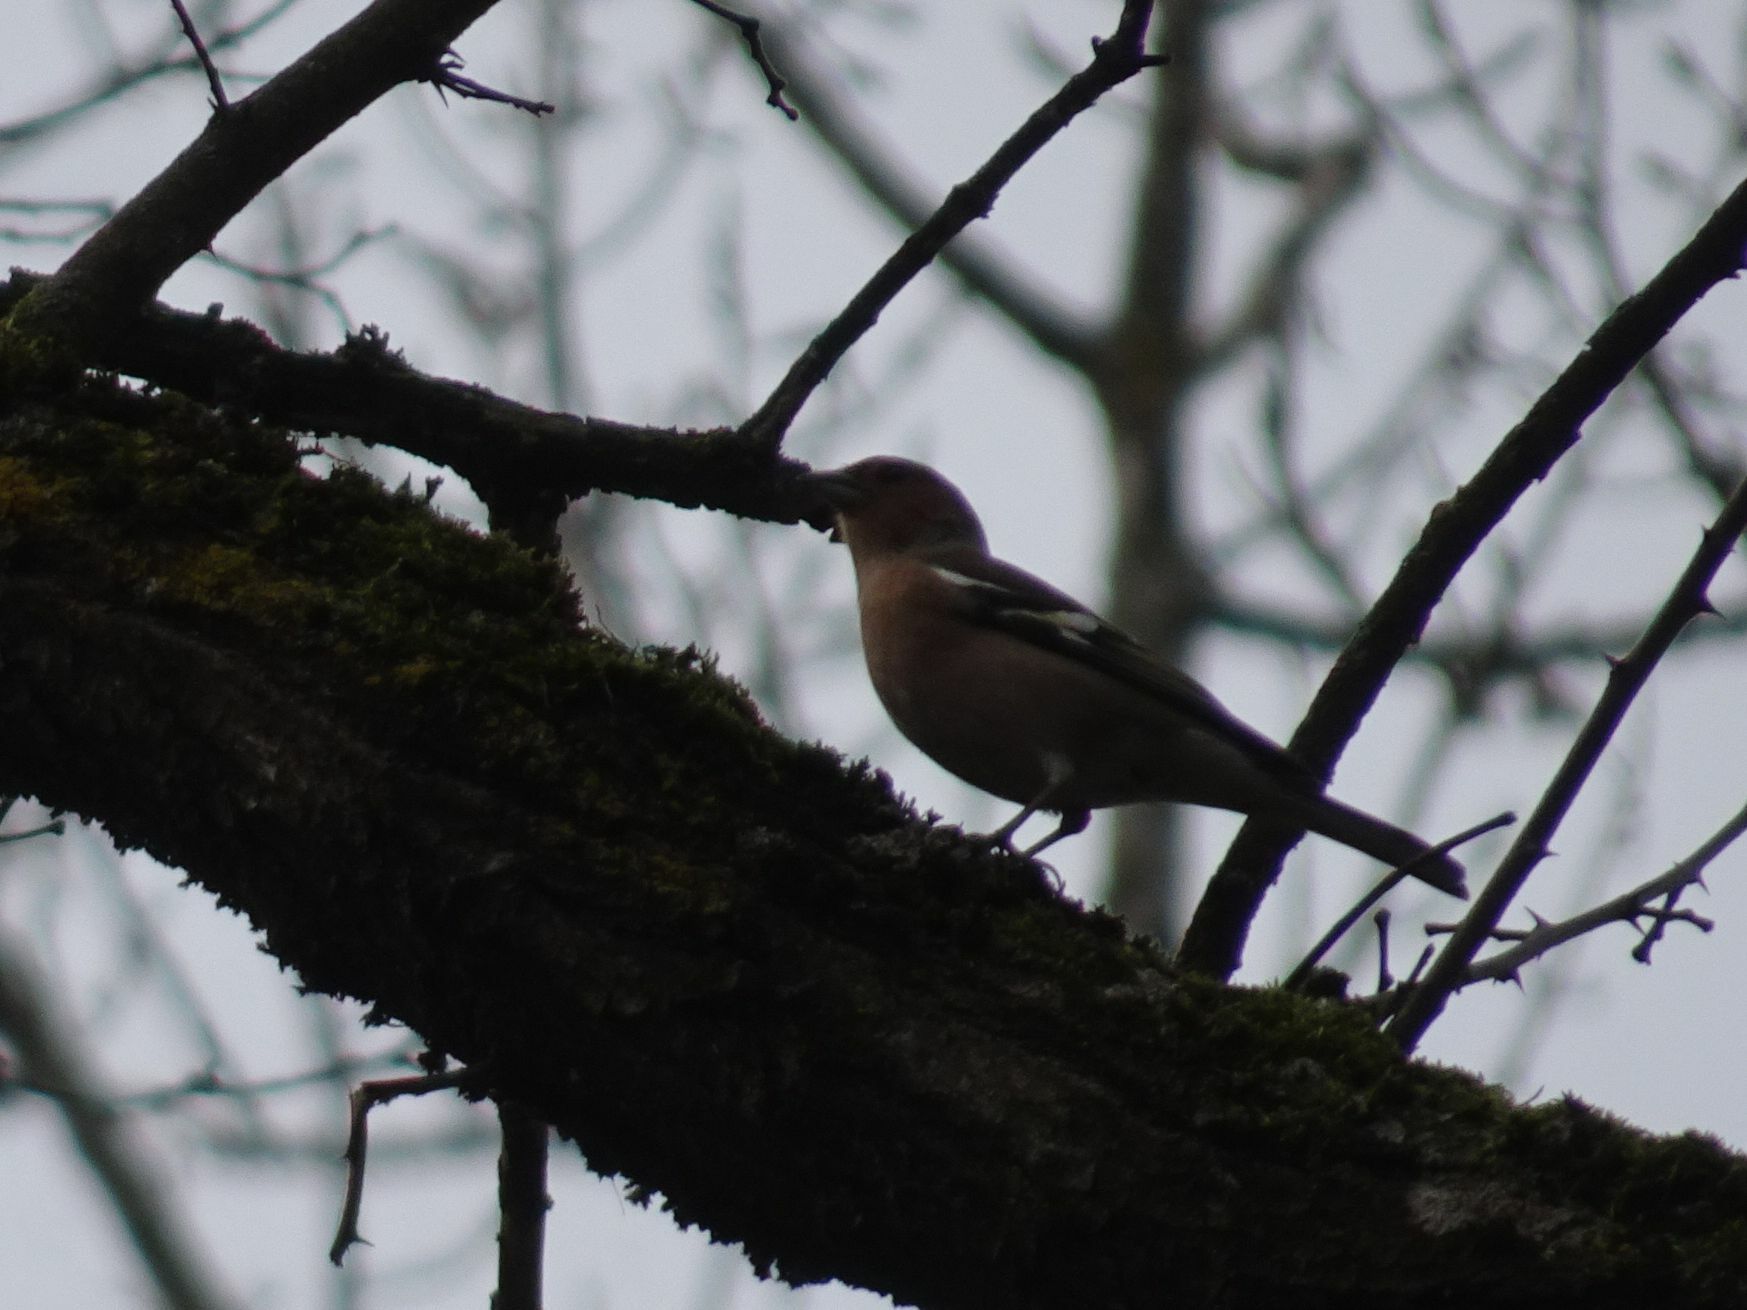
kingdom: Animalia
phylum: Chordata
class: Aves
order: Passeriformes
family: Fringillidae
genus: Fringilla
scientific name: Fringilla coelebs
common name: Common chaffinch
